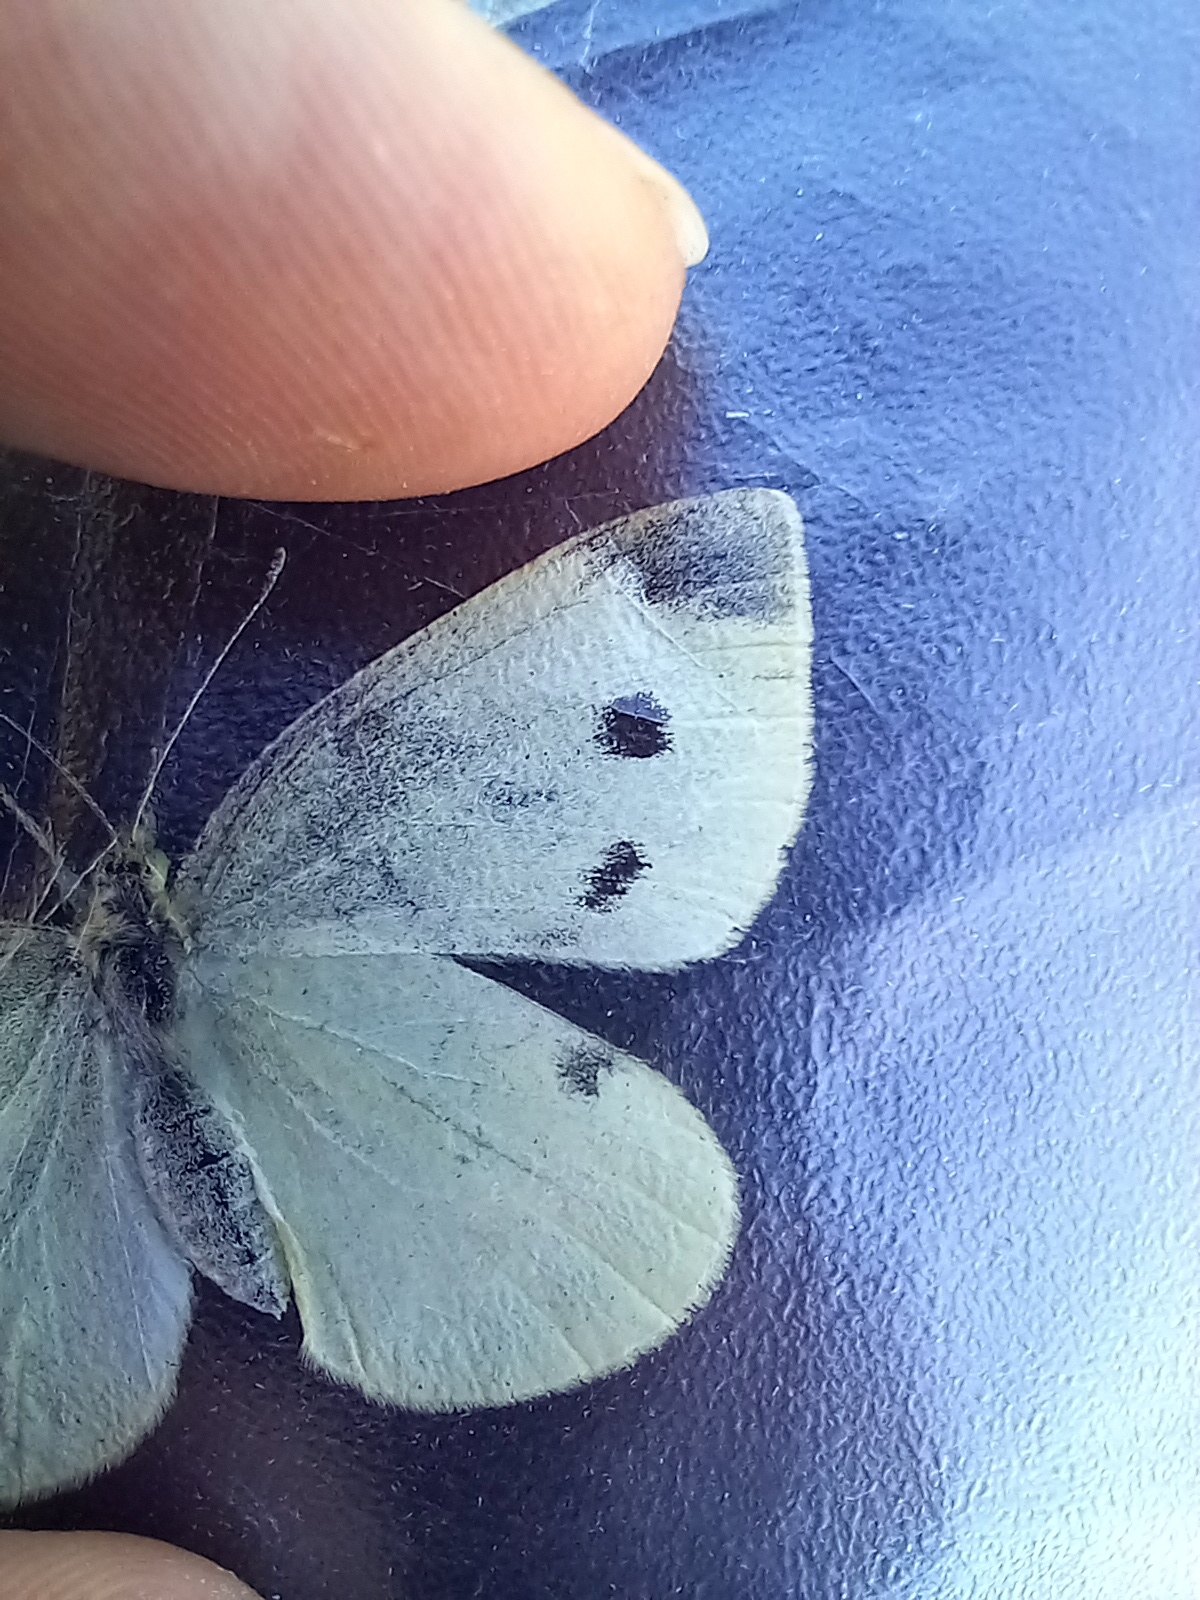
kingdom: Animalia
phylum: Arthropoda
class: Insecta
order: Lepidoptera
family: Pieridae
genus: Pieris
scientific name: Pieris rapae
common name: Small white
